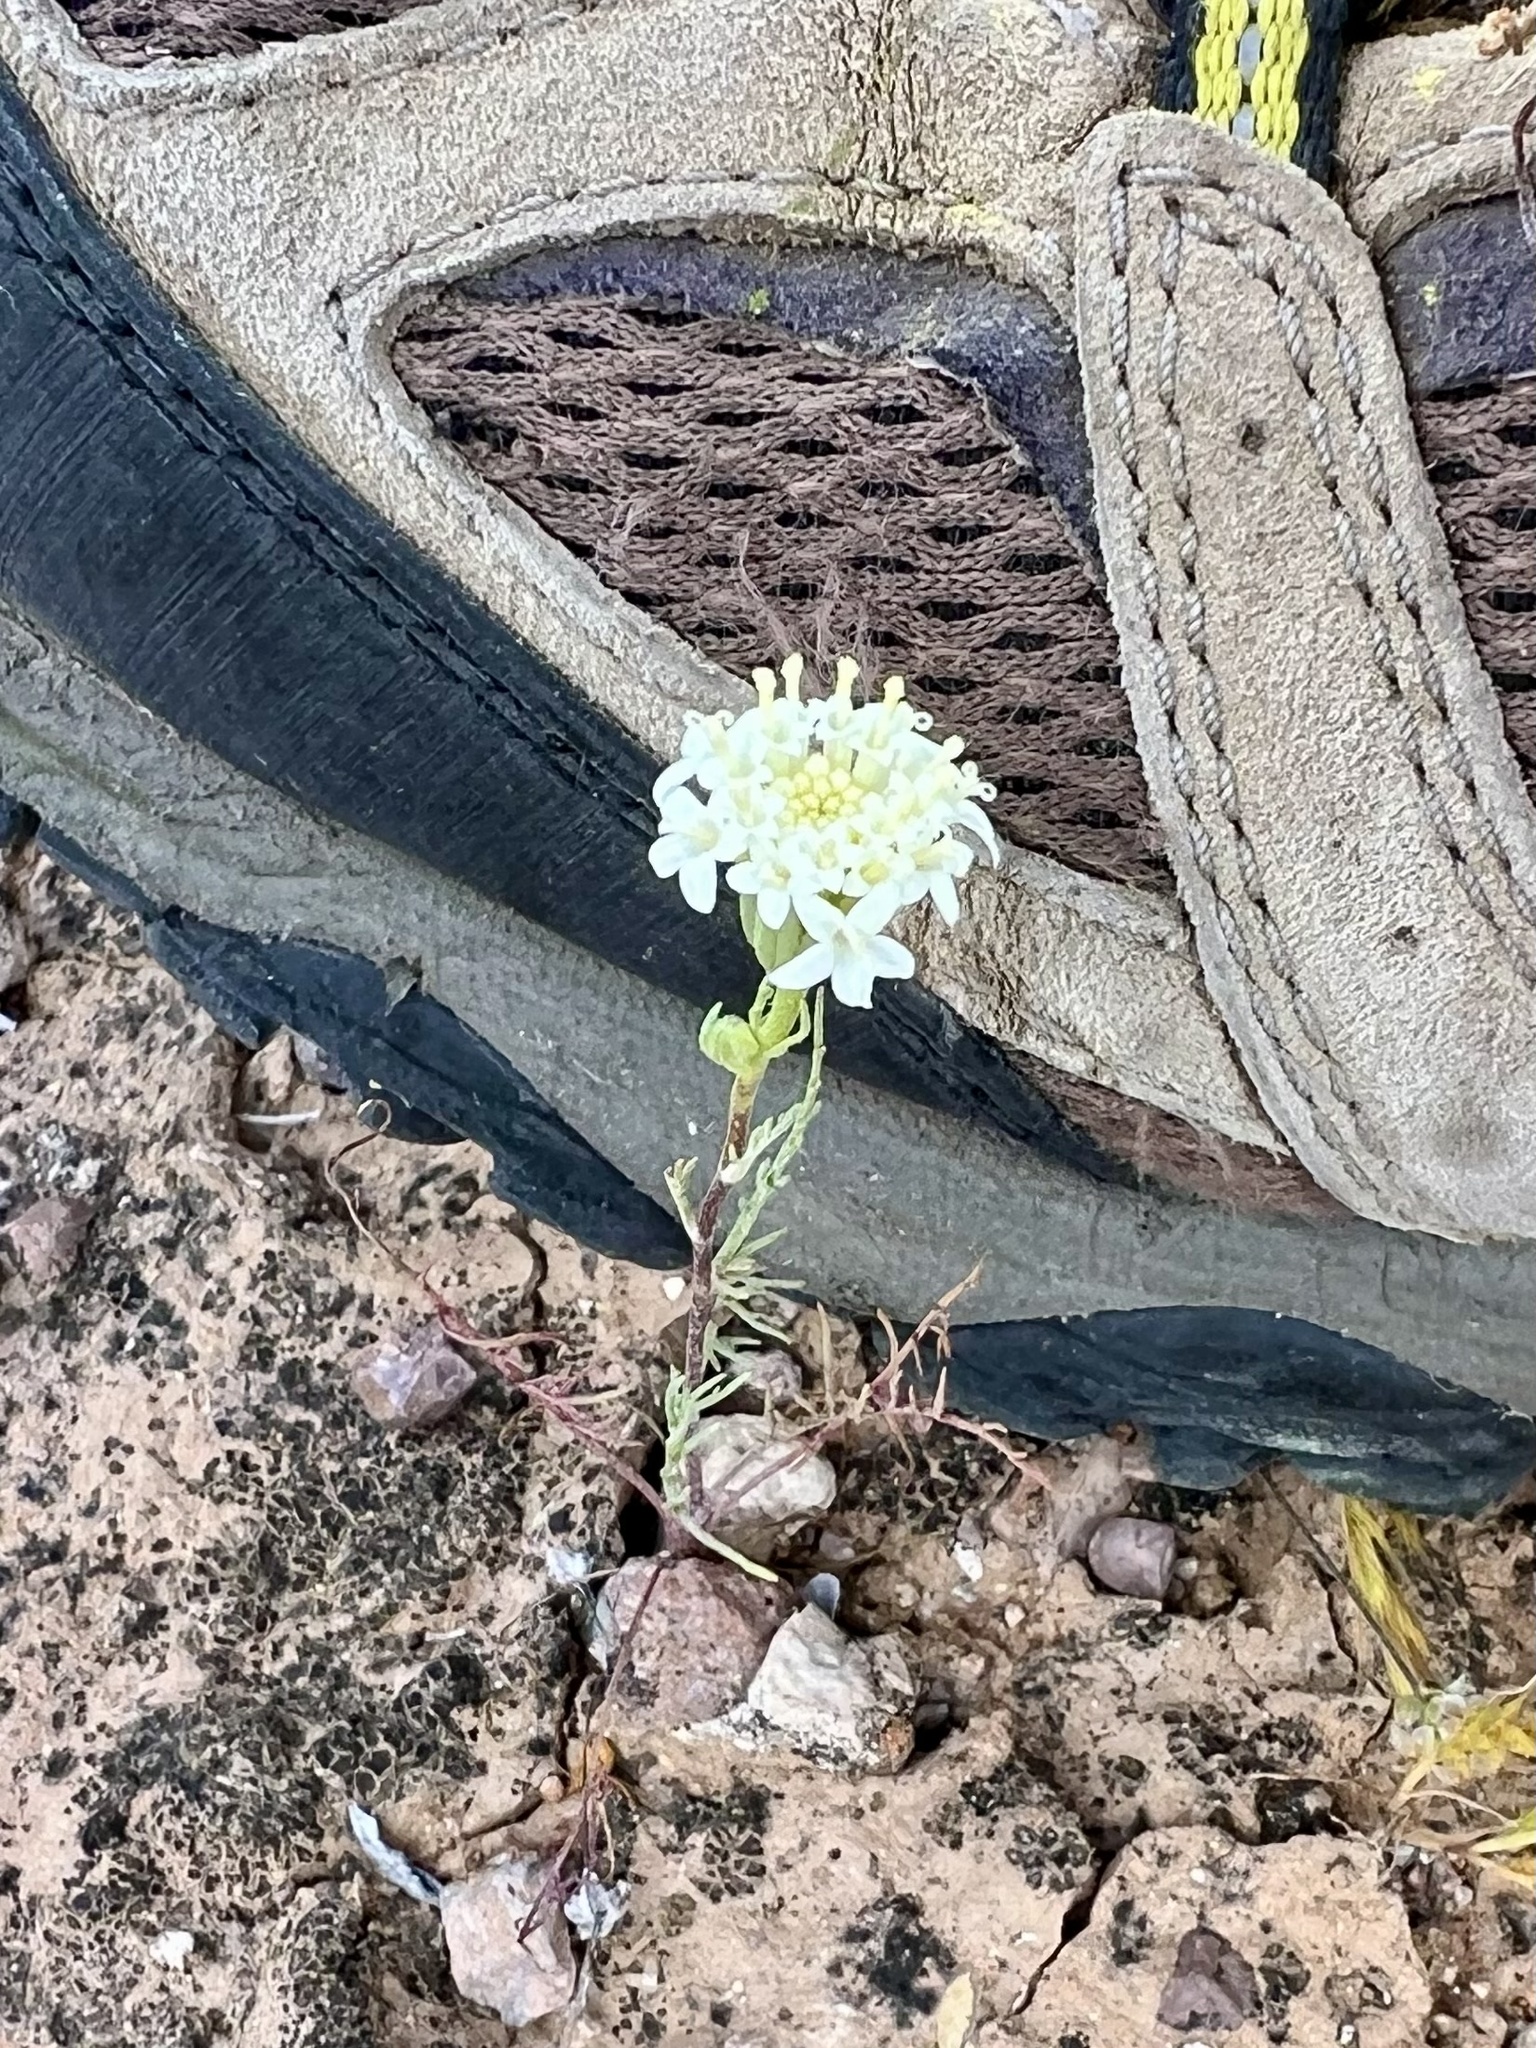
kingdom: Plantae
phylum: Tracheophyta
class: Magnoliopsida
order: Asterales
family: Asteraceae
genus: Chaenactis
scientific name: Chaenactis stevioides
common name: Desert pincushion
